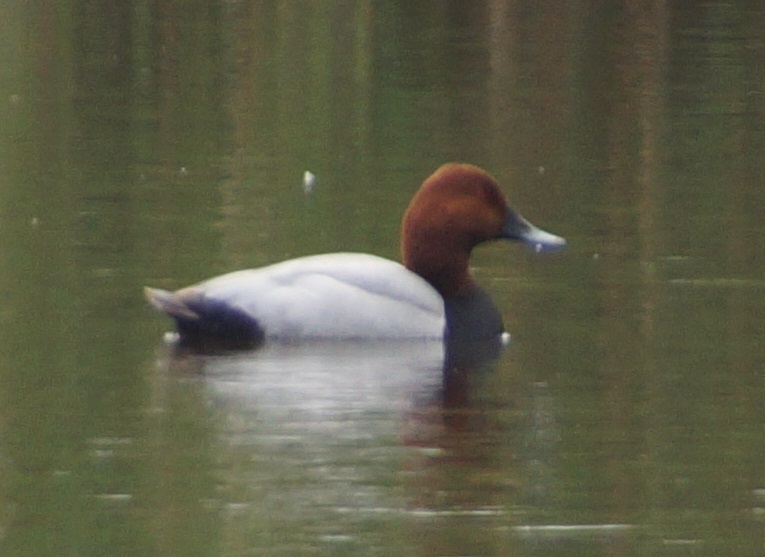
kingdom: Animalia
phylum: Chordata
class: Aves
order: Anseriformes
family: Anatidae
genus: Aythya
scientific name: Aythya ferina
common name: Common pochard
